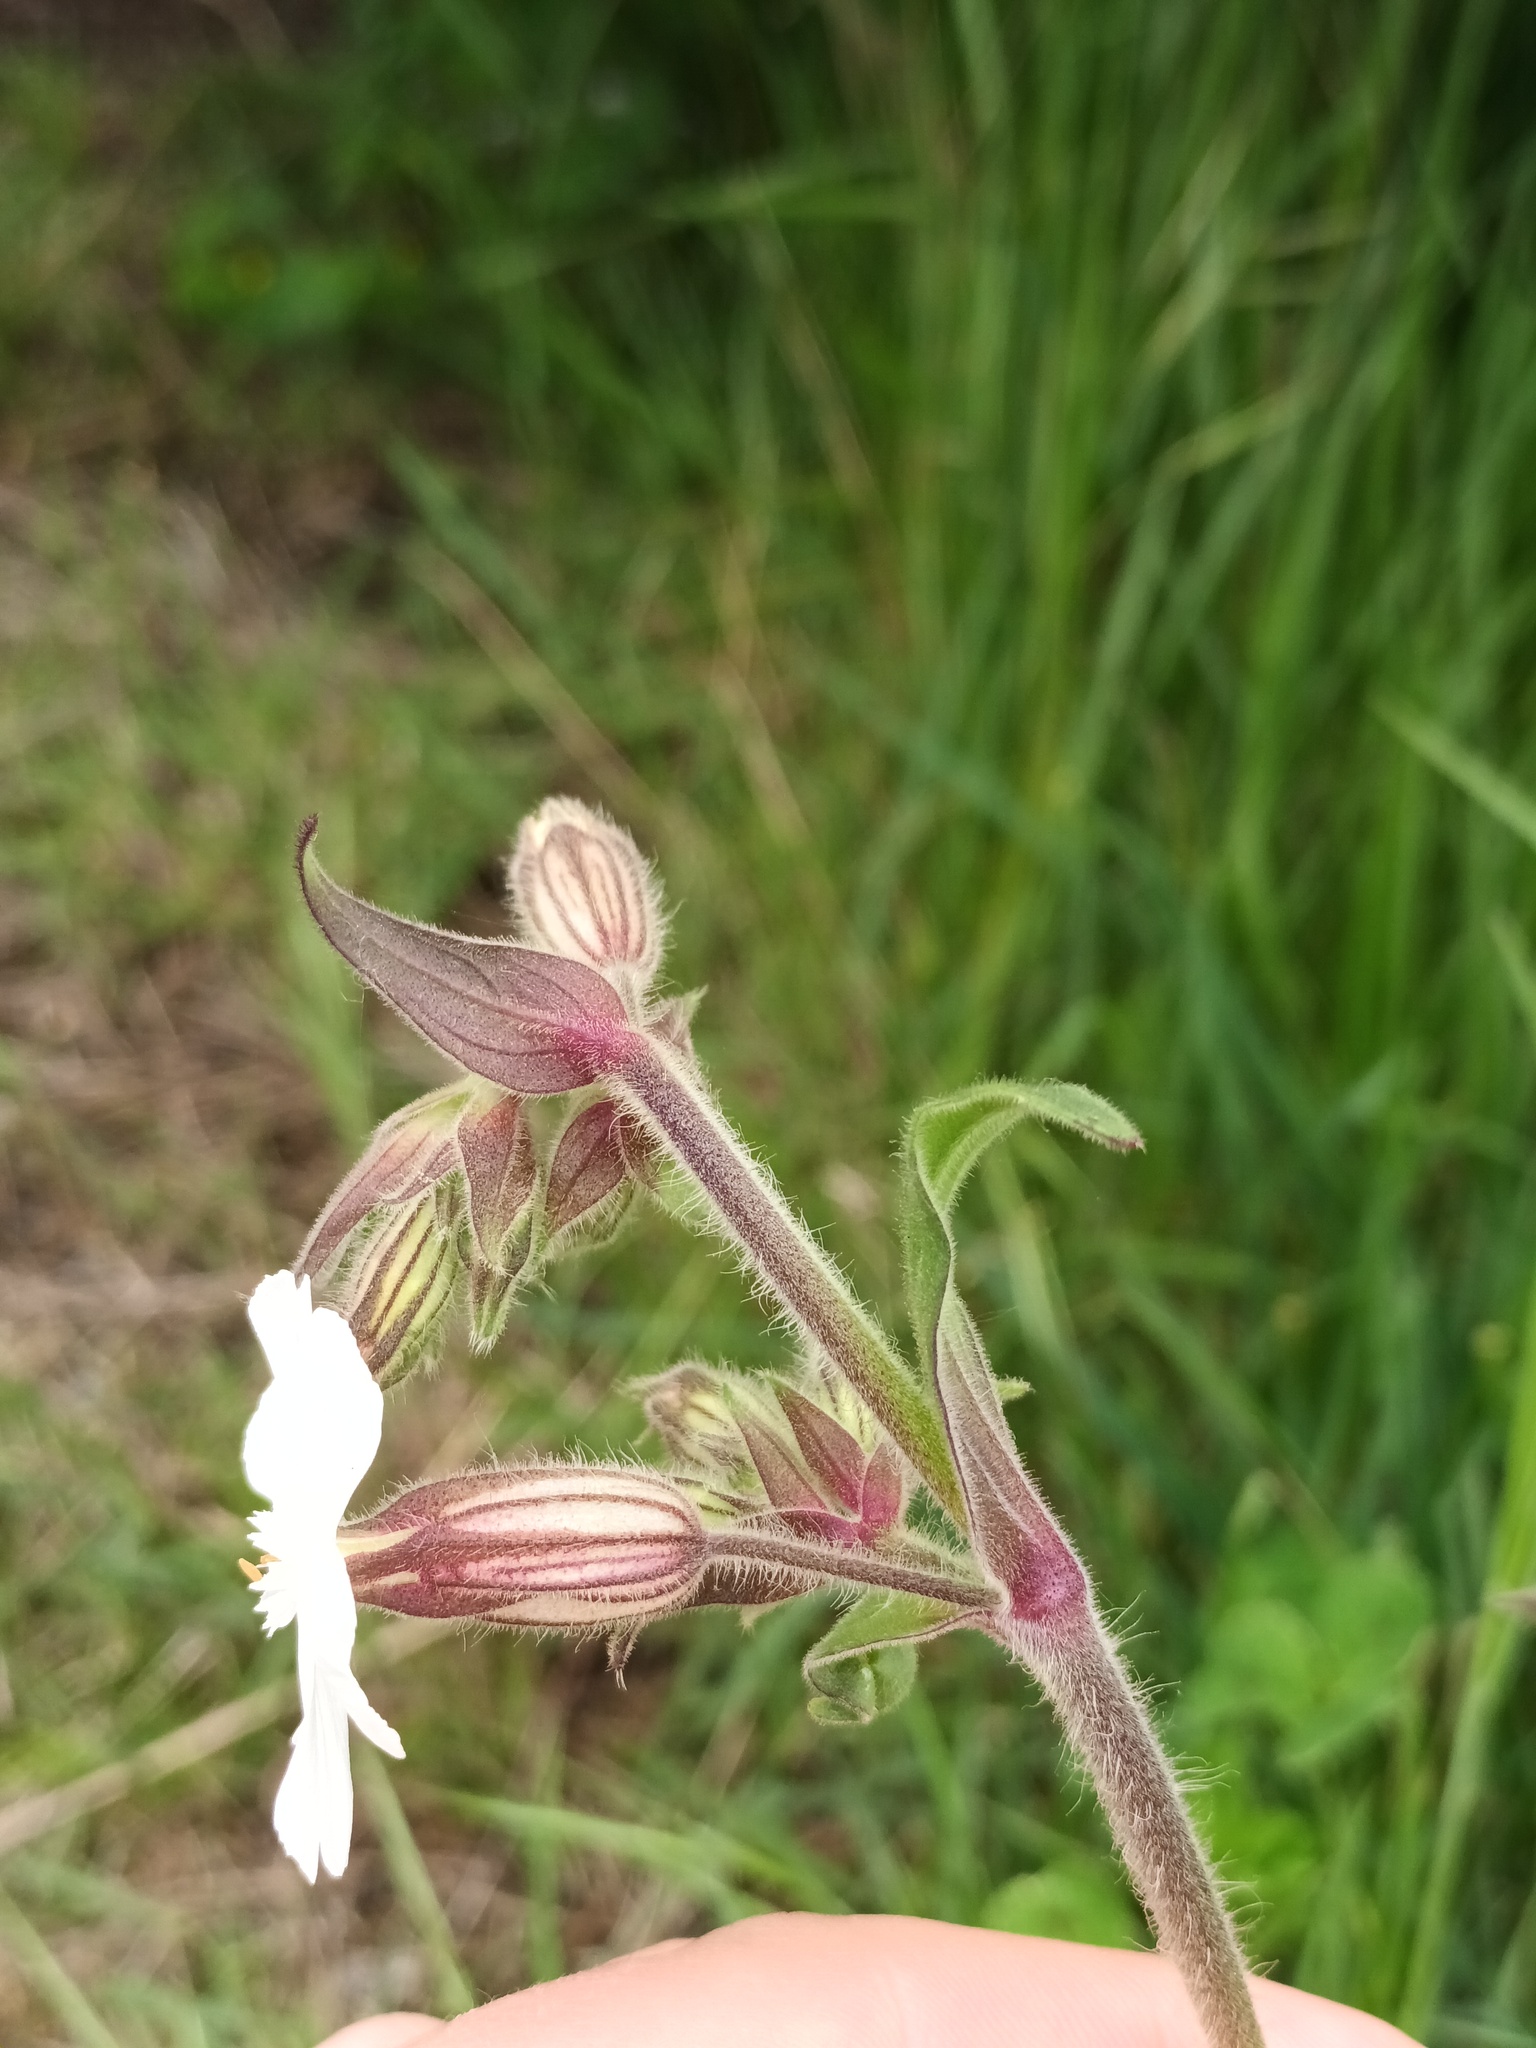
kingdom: Plantae
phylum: Tracheophyta
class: Magnoliopsida
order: Caryophyllales
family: Caryophyllaceae
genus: Silene
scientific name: Silene latifolia
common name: White campion
